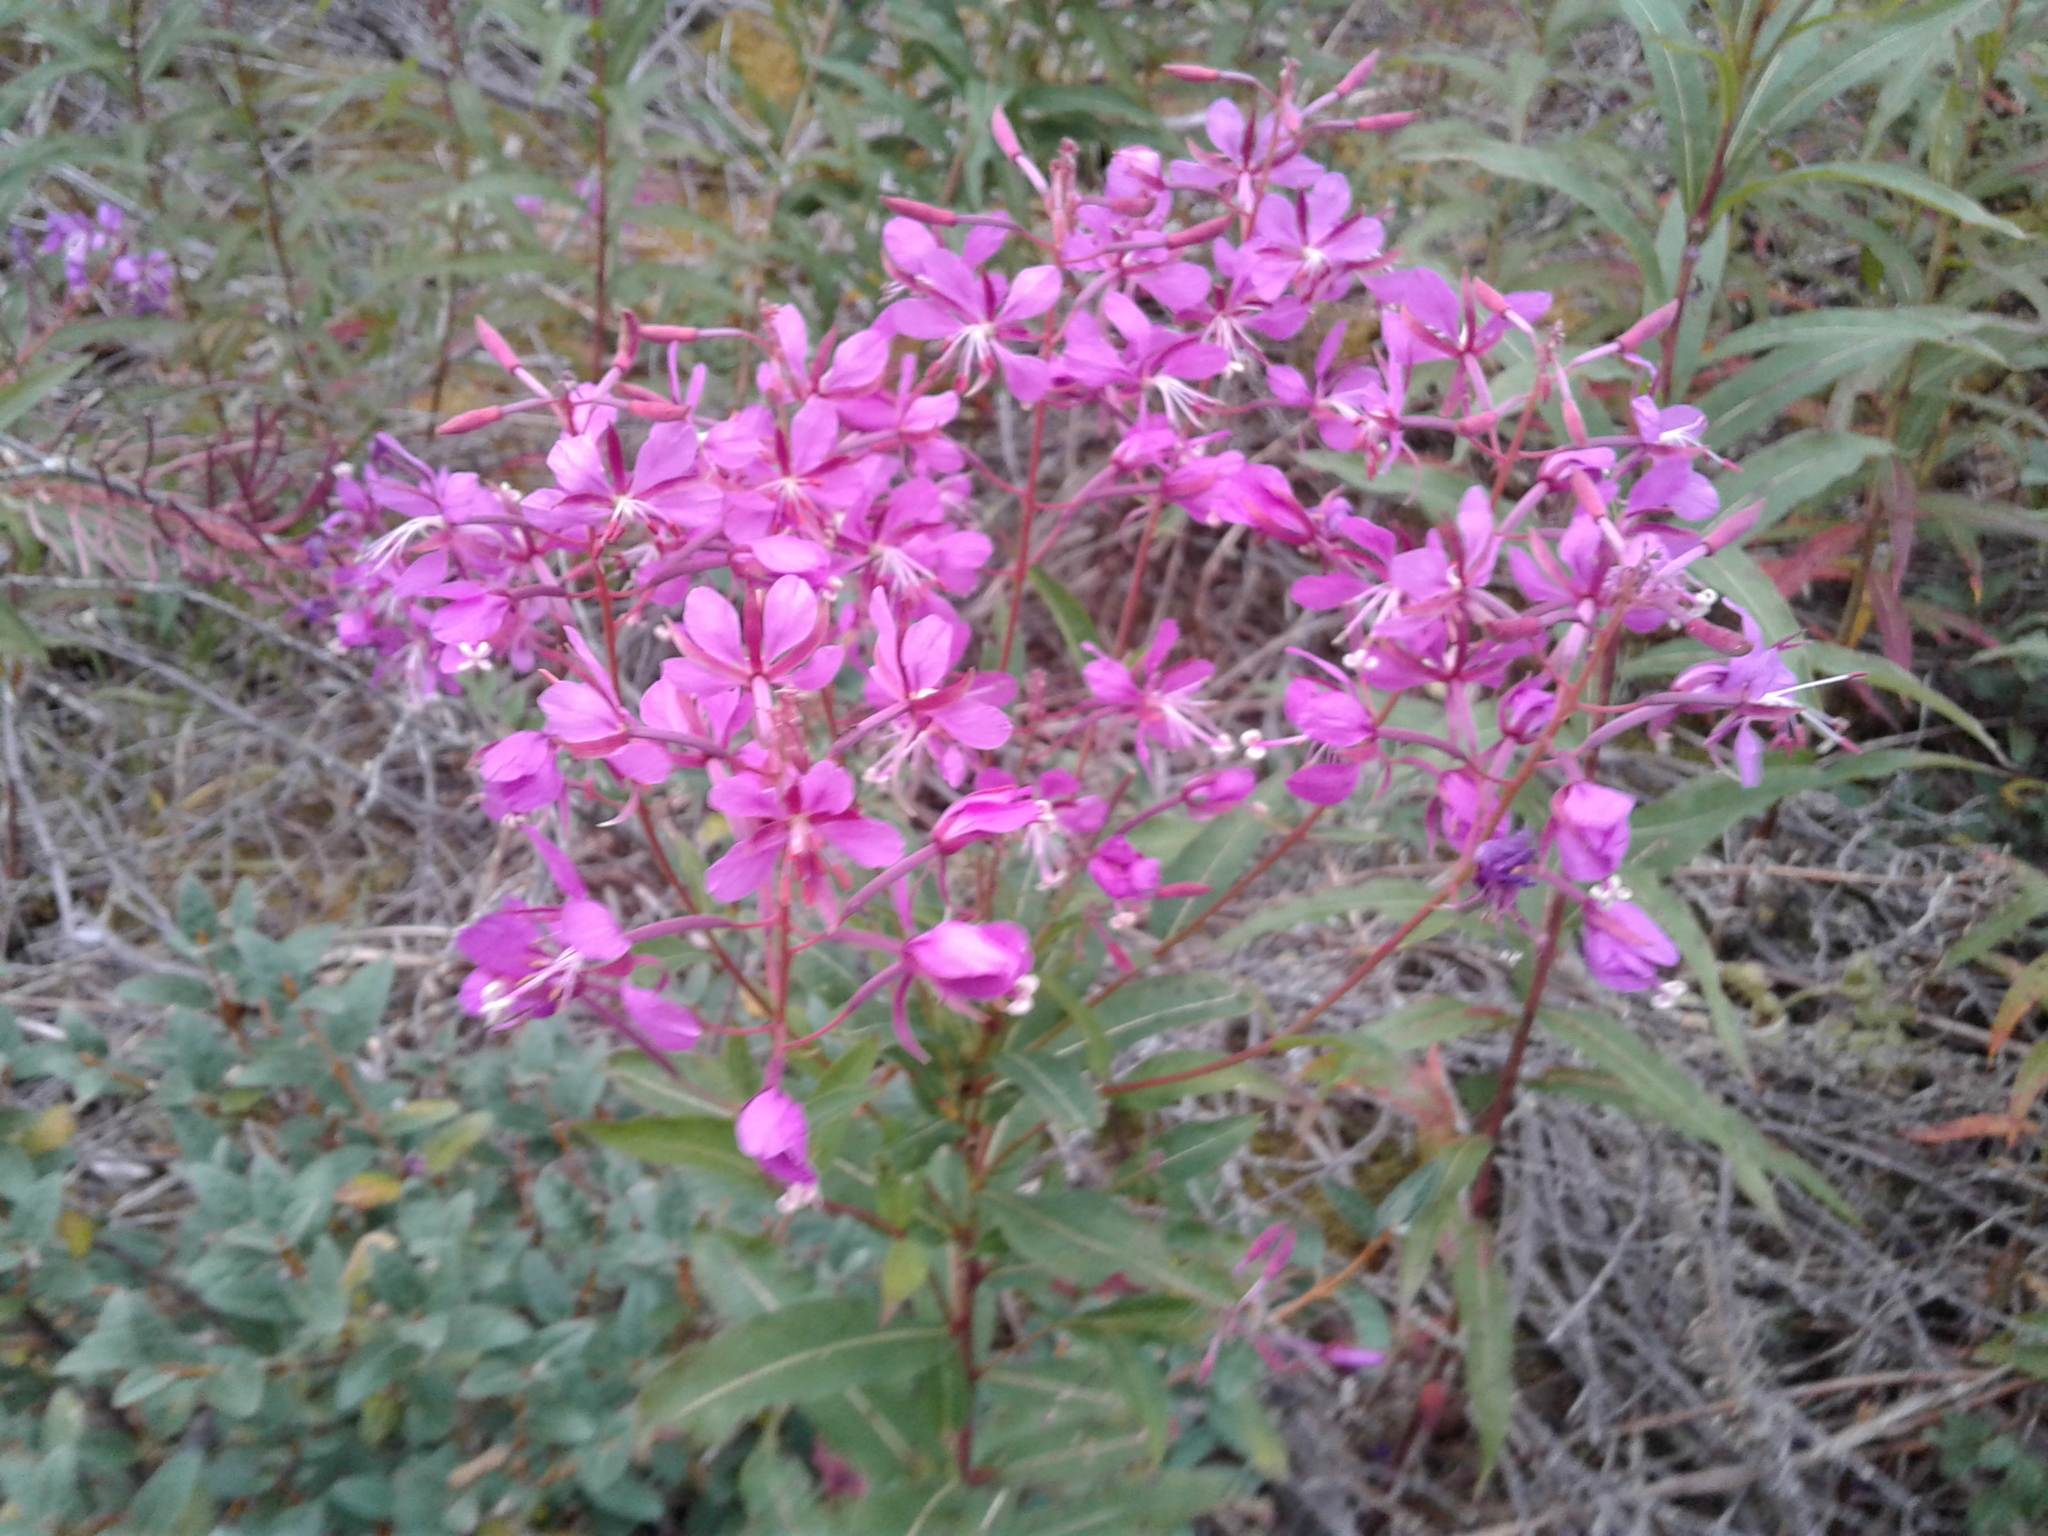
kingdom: Plantae
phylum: Tracheophyta
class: Magnoliopsida
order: Myrtales
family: Onagraceae
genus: Chamaenerion
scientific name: Chamaenerion angustifolium
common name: Fireweed
